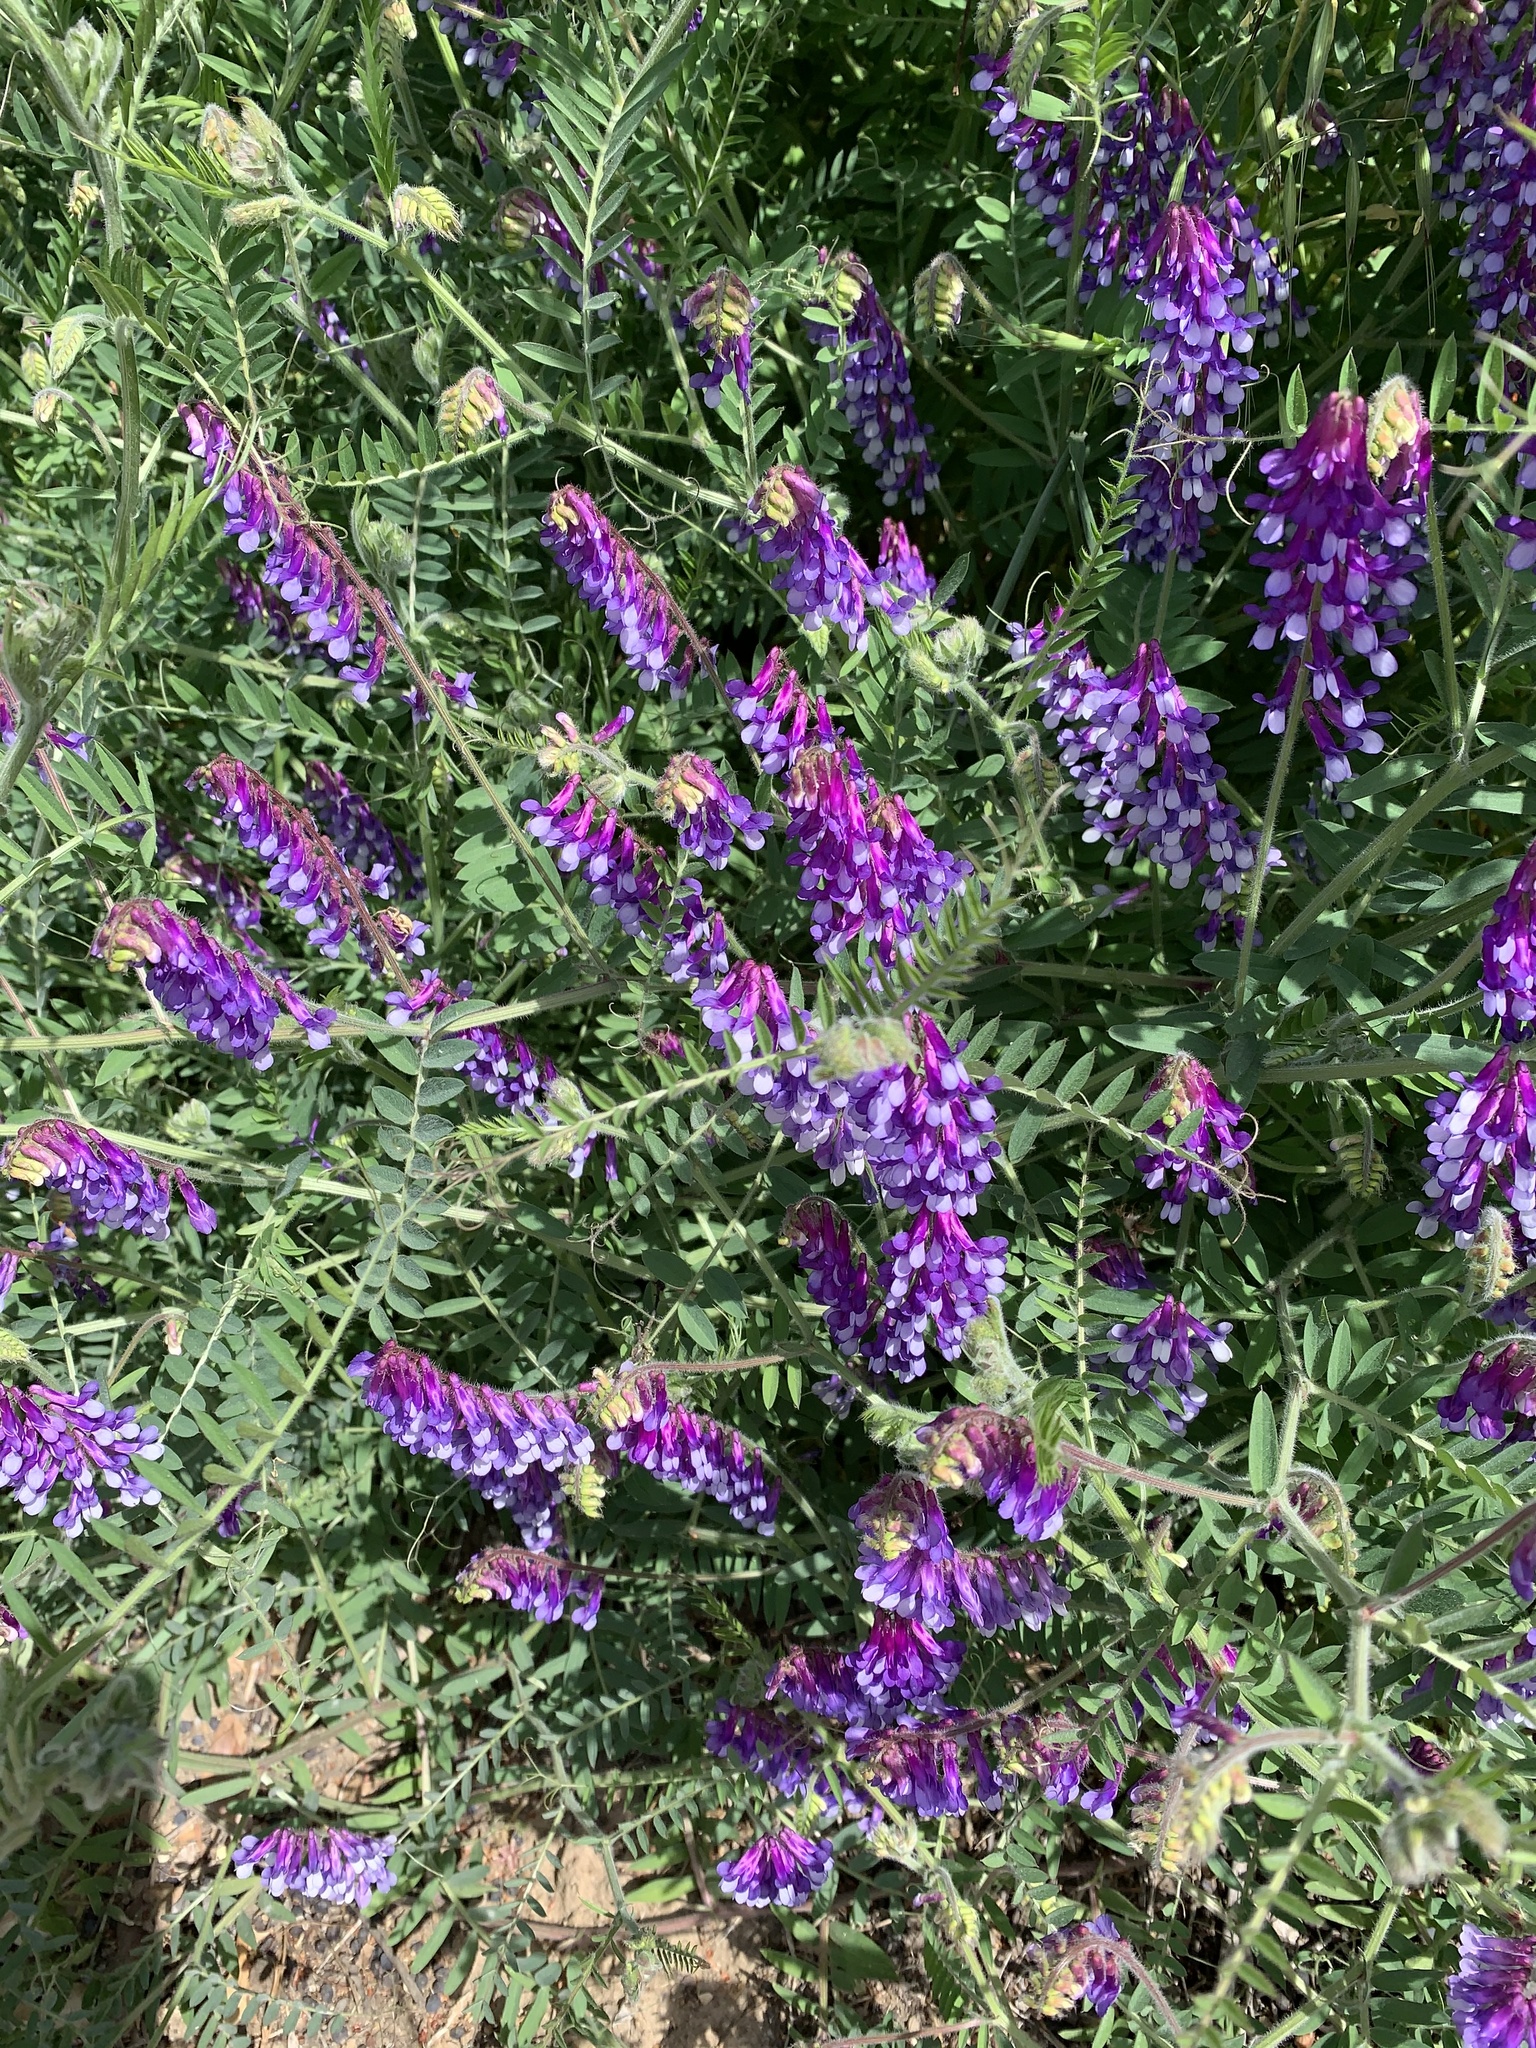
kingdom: Plantae
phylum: Tracheophyta
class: Magnoliopsida
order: Fabales
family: Fabaceae
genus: Vicia
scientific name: Vicia villosa
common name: Fodder vetch
